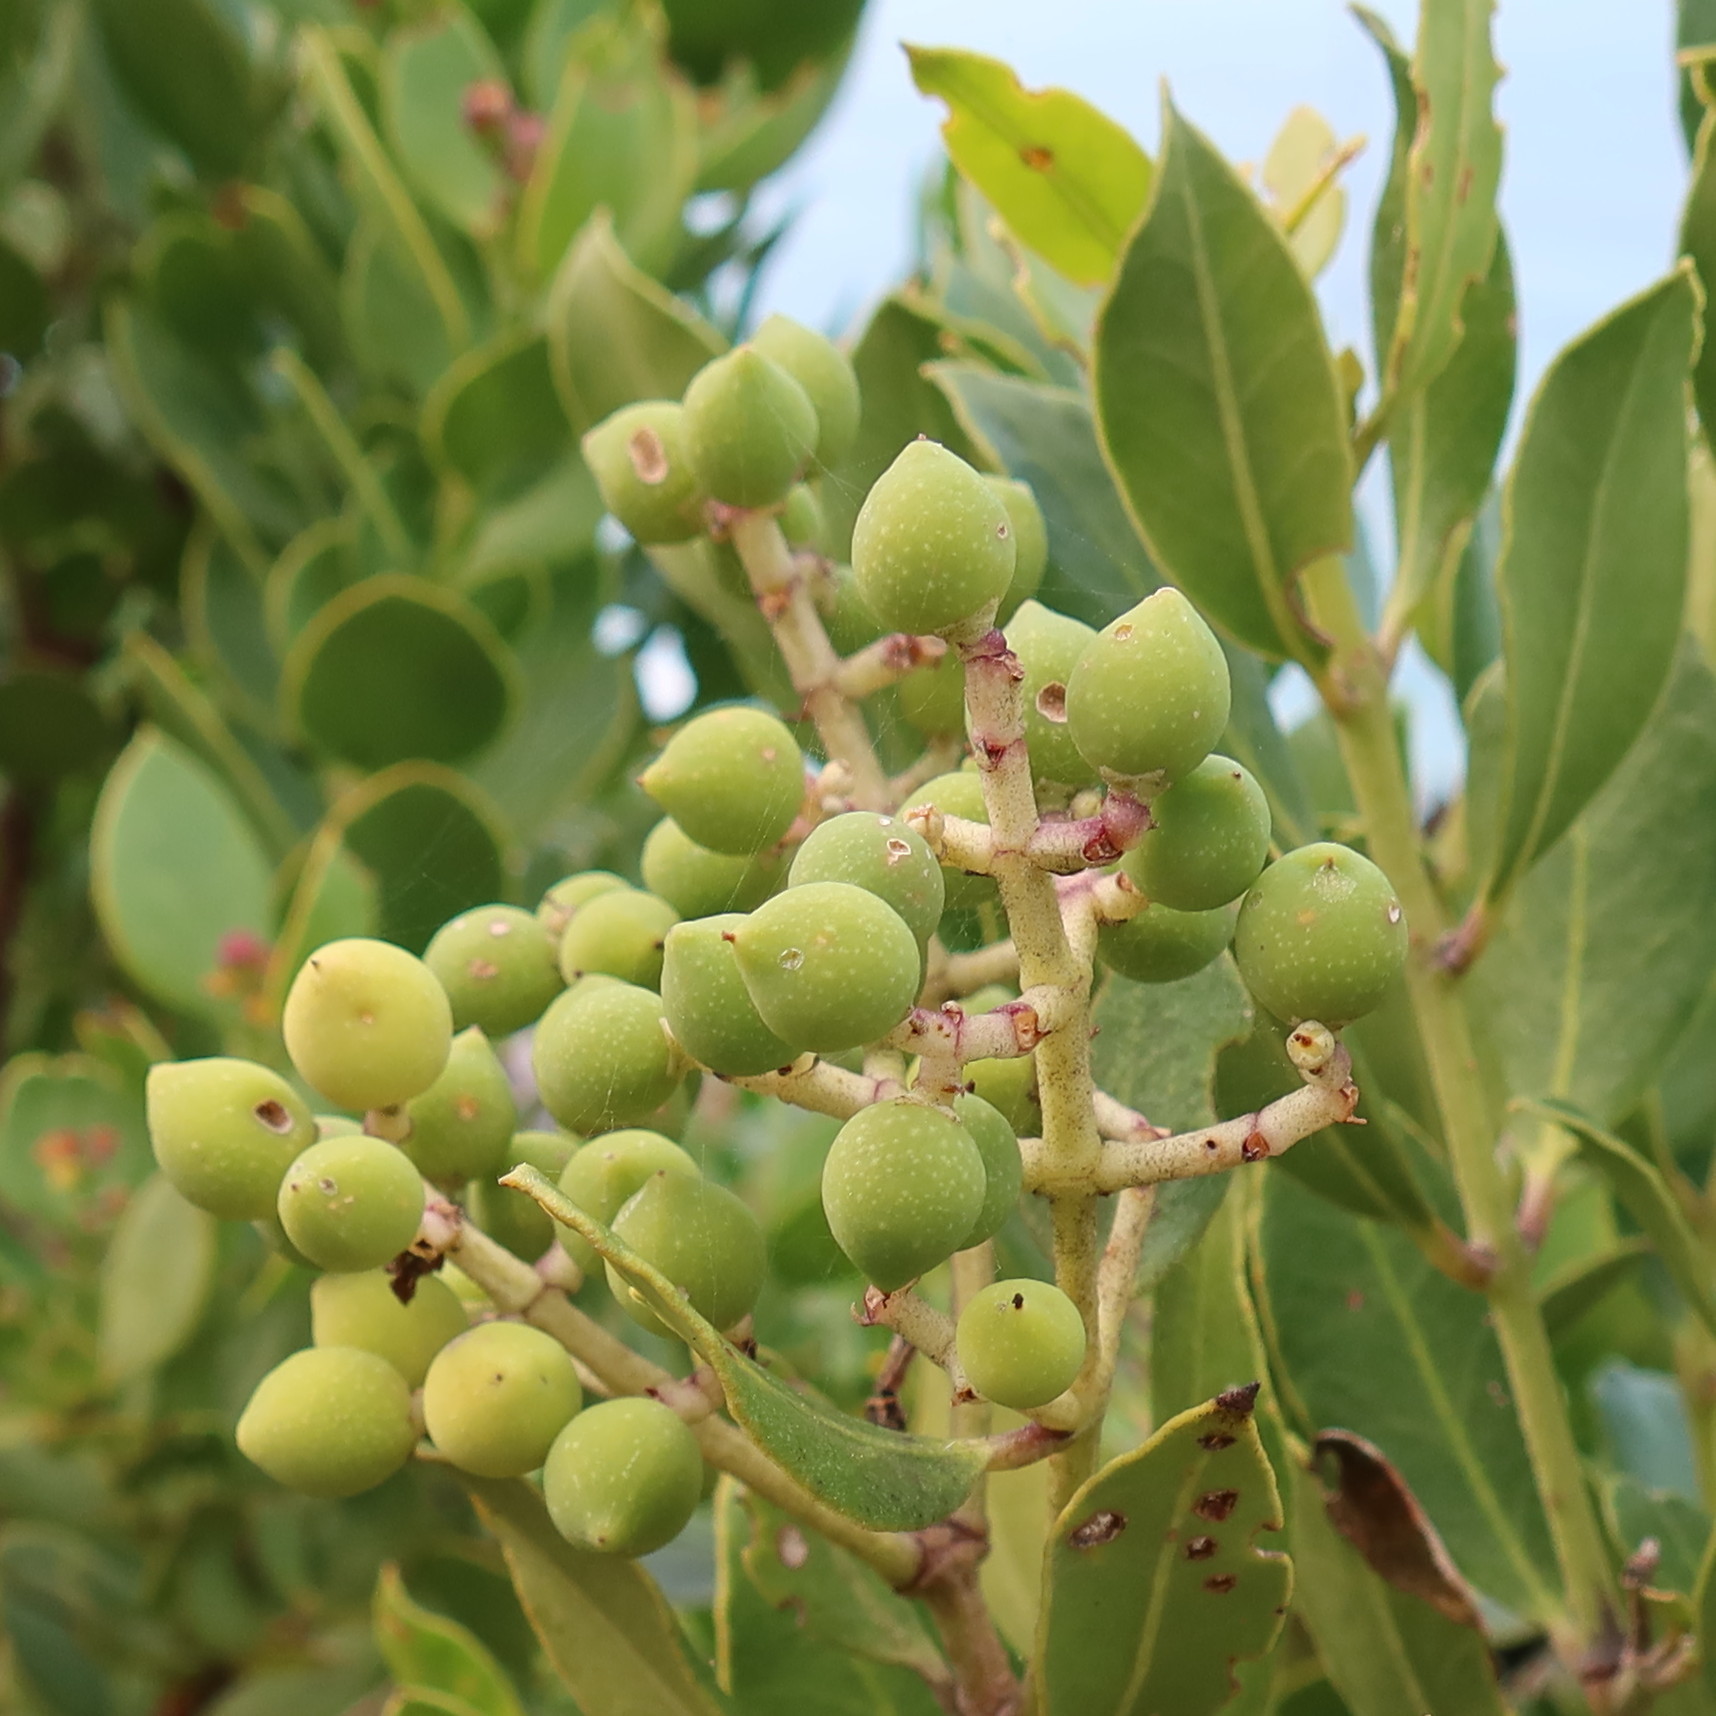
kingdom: Plantae
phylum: Tracheophyta
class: Magnoliopsida
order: Lamiales
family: Oleaceae
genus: Olea
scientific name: Olea capensis
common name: Black ironwood
